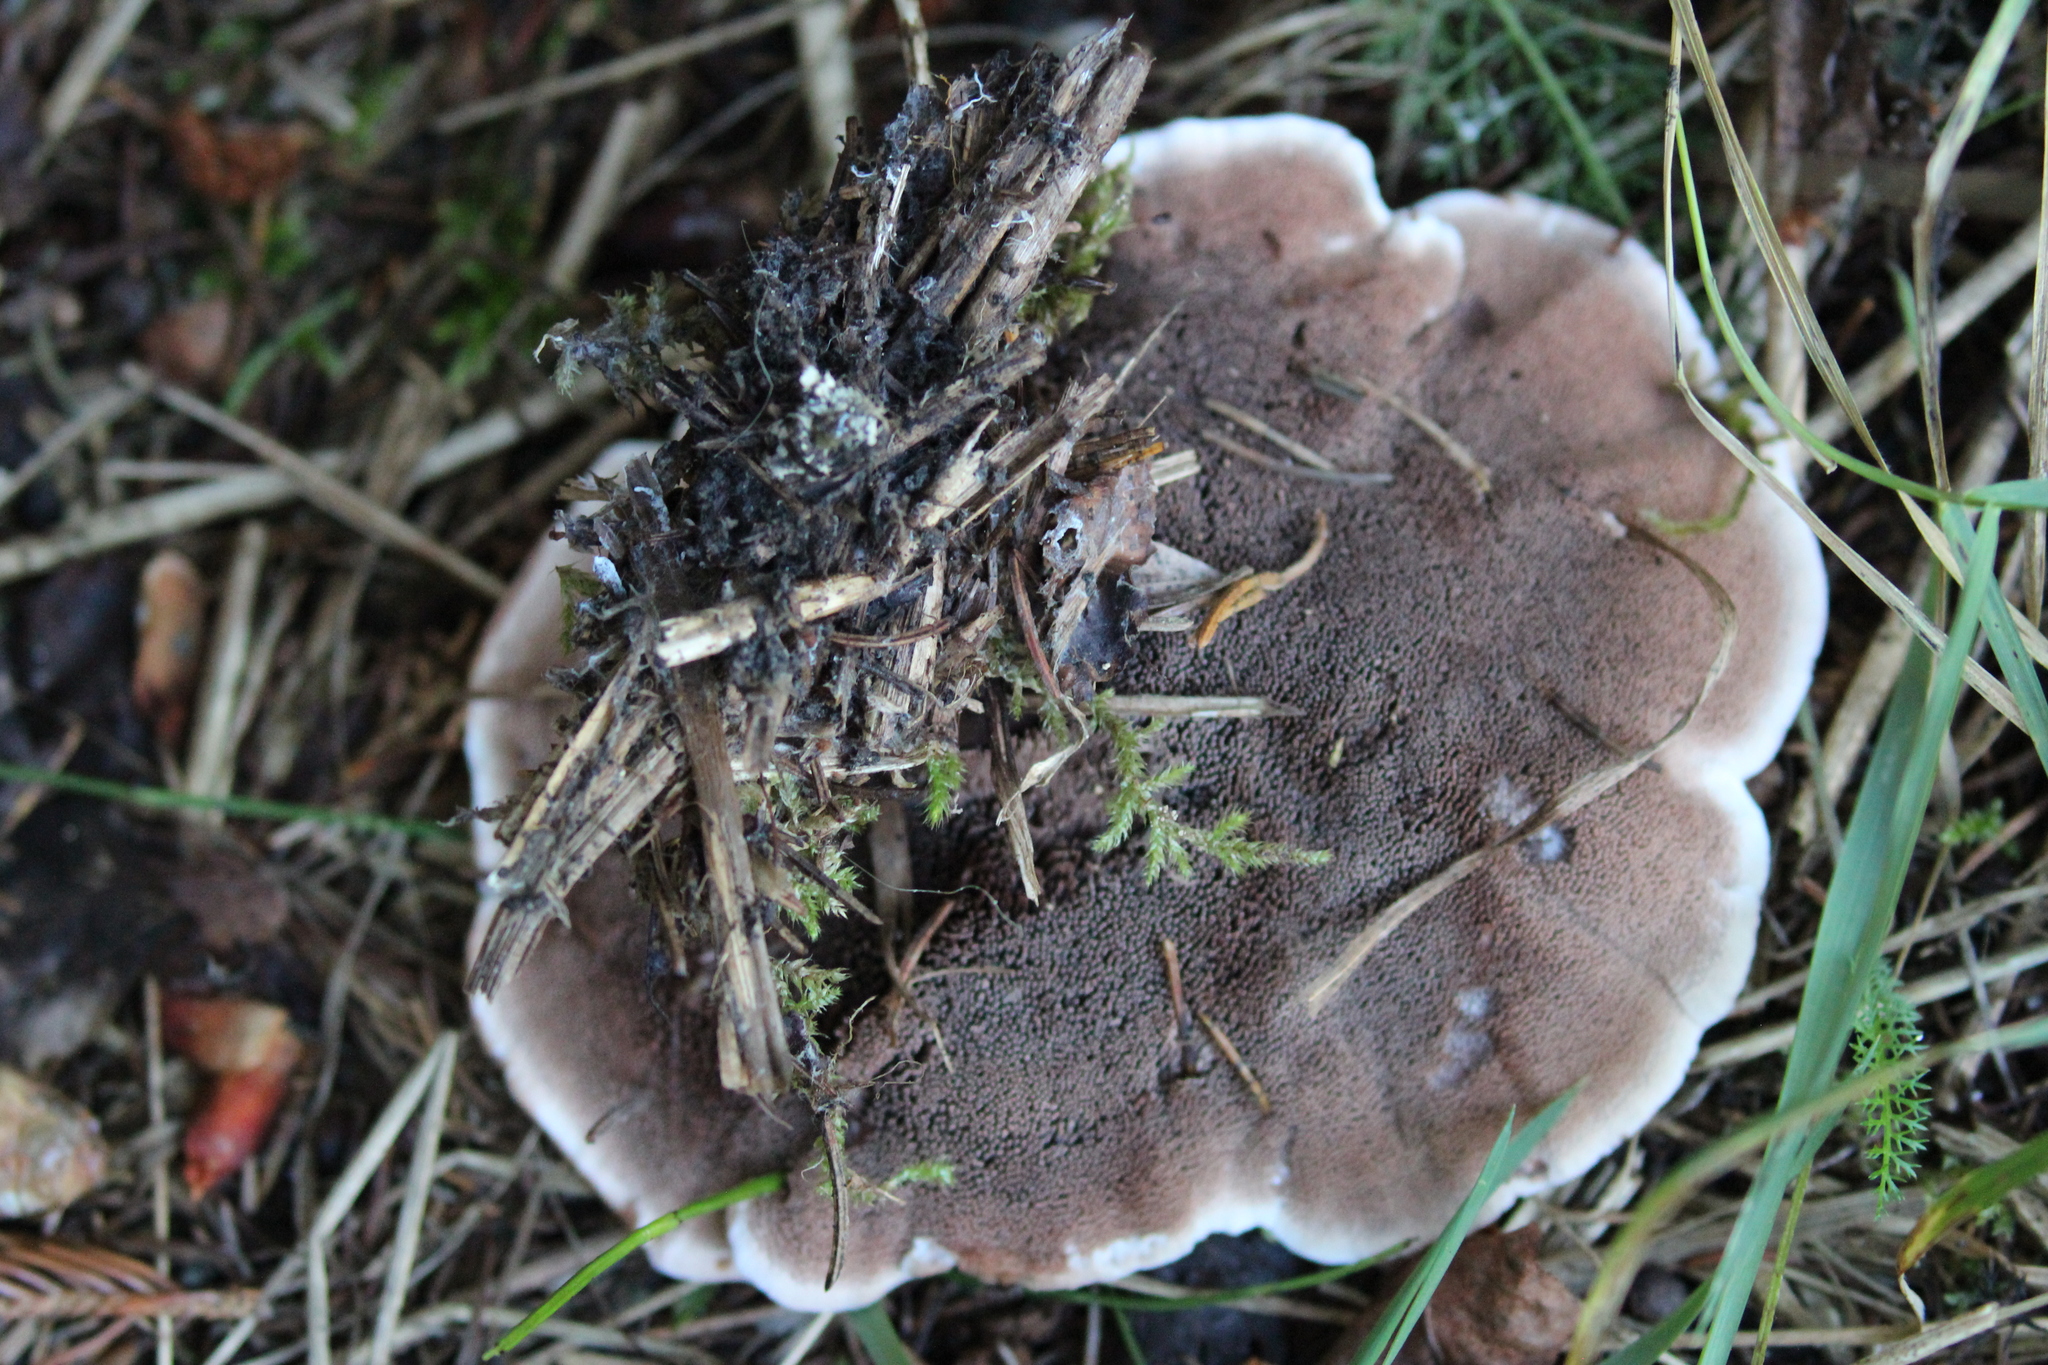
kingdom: Fungi
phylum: Basidiomycota
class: Agaricomycetes
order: Thelephorales
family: Thelephoraceae
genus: Phellodon
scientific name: Phellodon niger
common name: Black tooth
